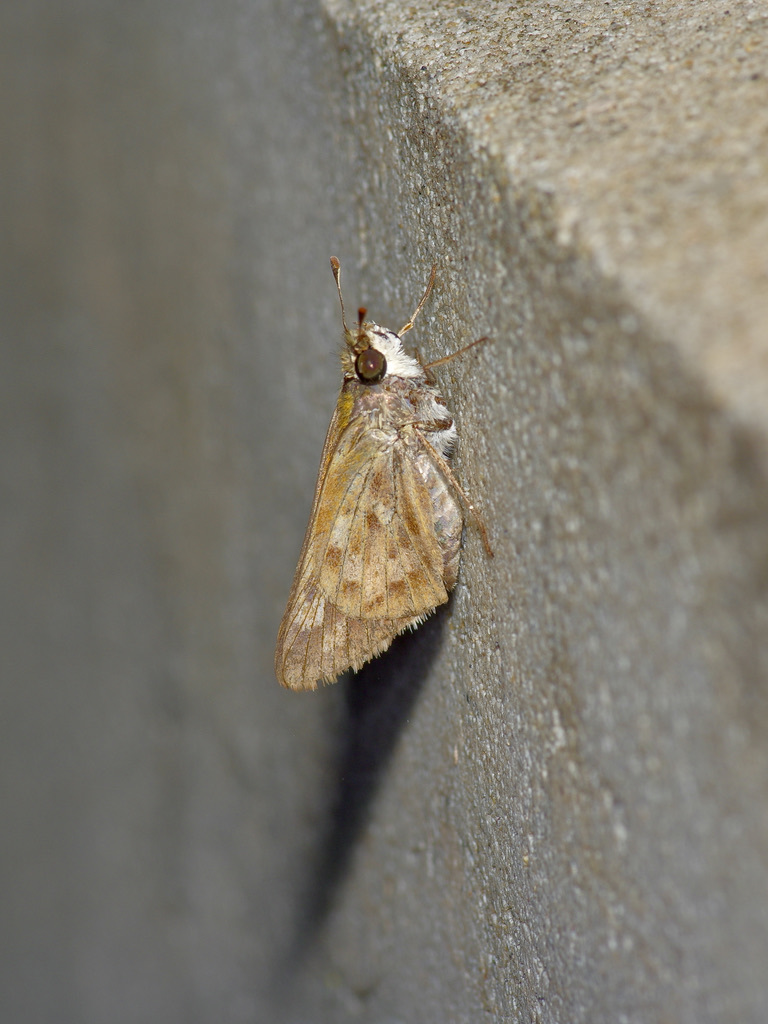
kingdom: Animalia
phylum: Arthropoda
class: Insecta
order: Lepidoptera
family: Hesperiidae
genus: Hylephila
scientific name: Hylephila phyleus
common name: Fiery skipper
